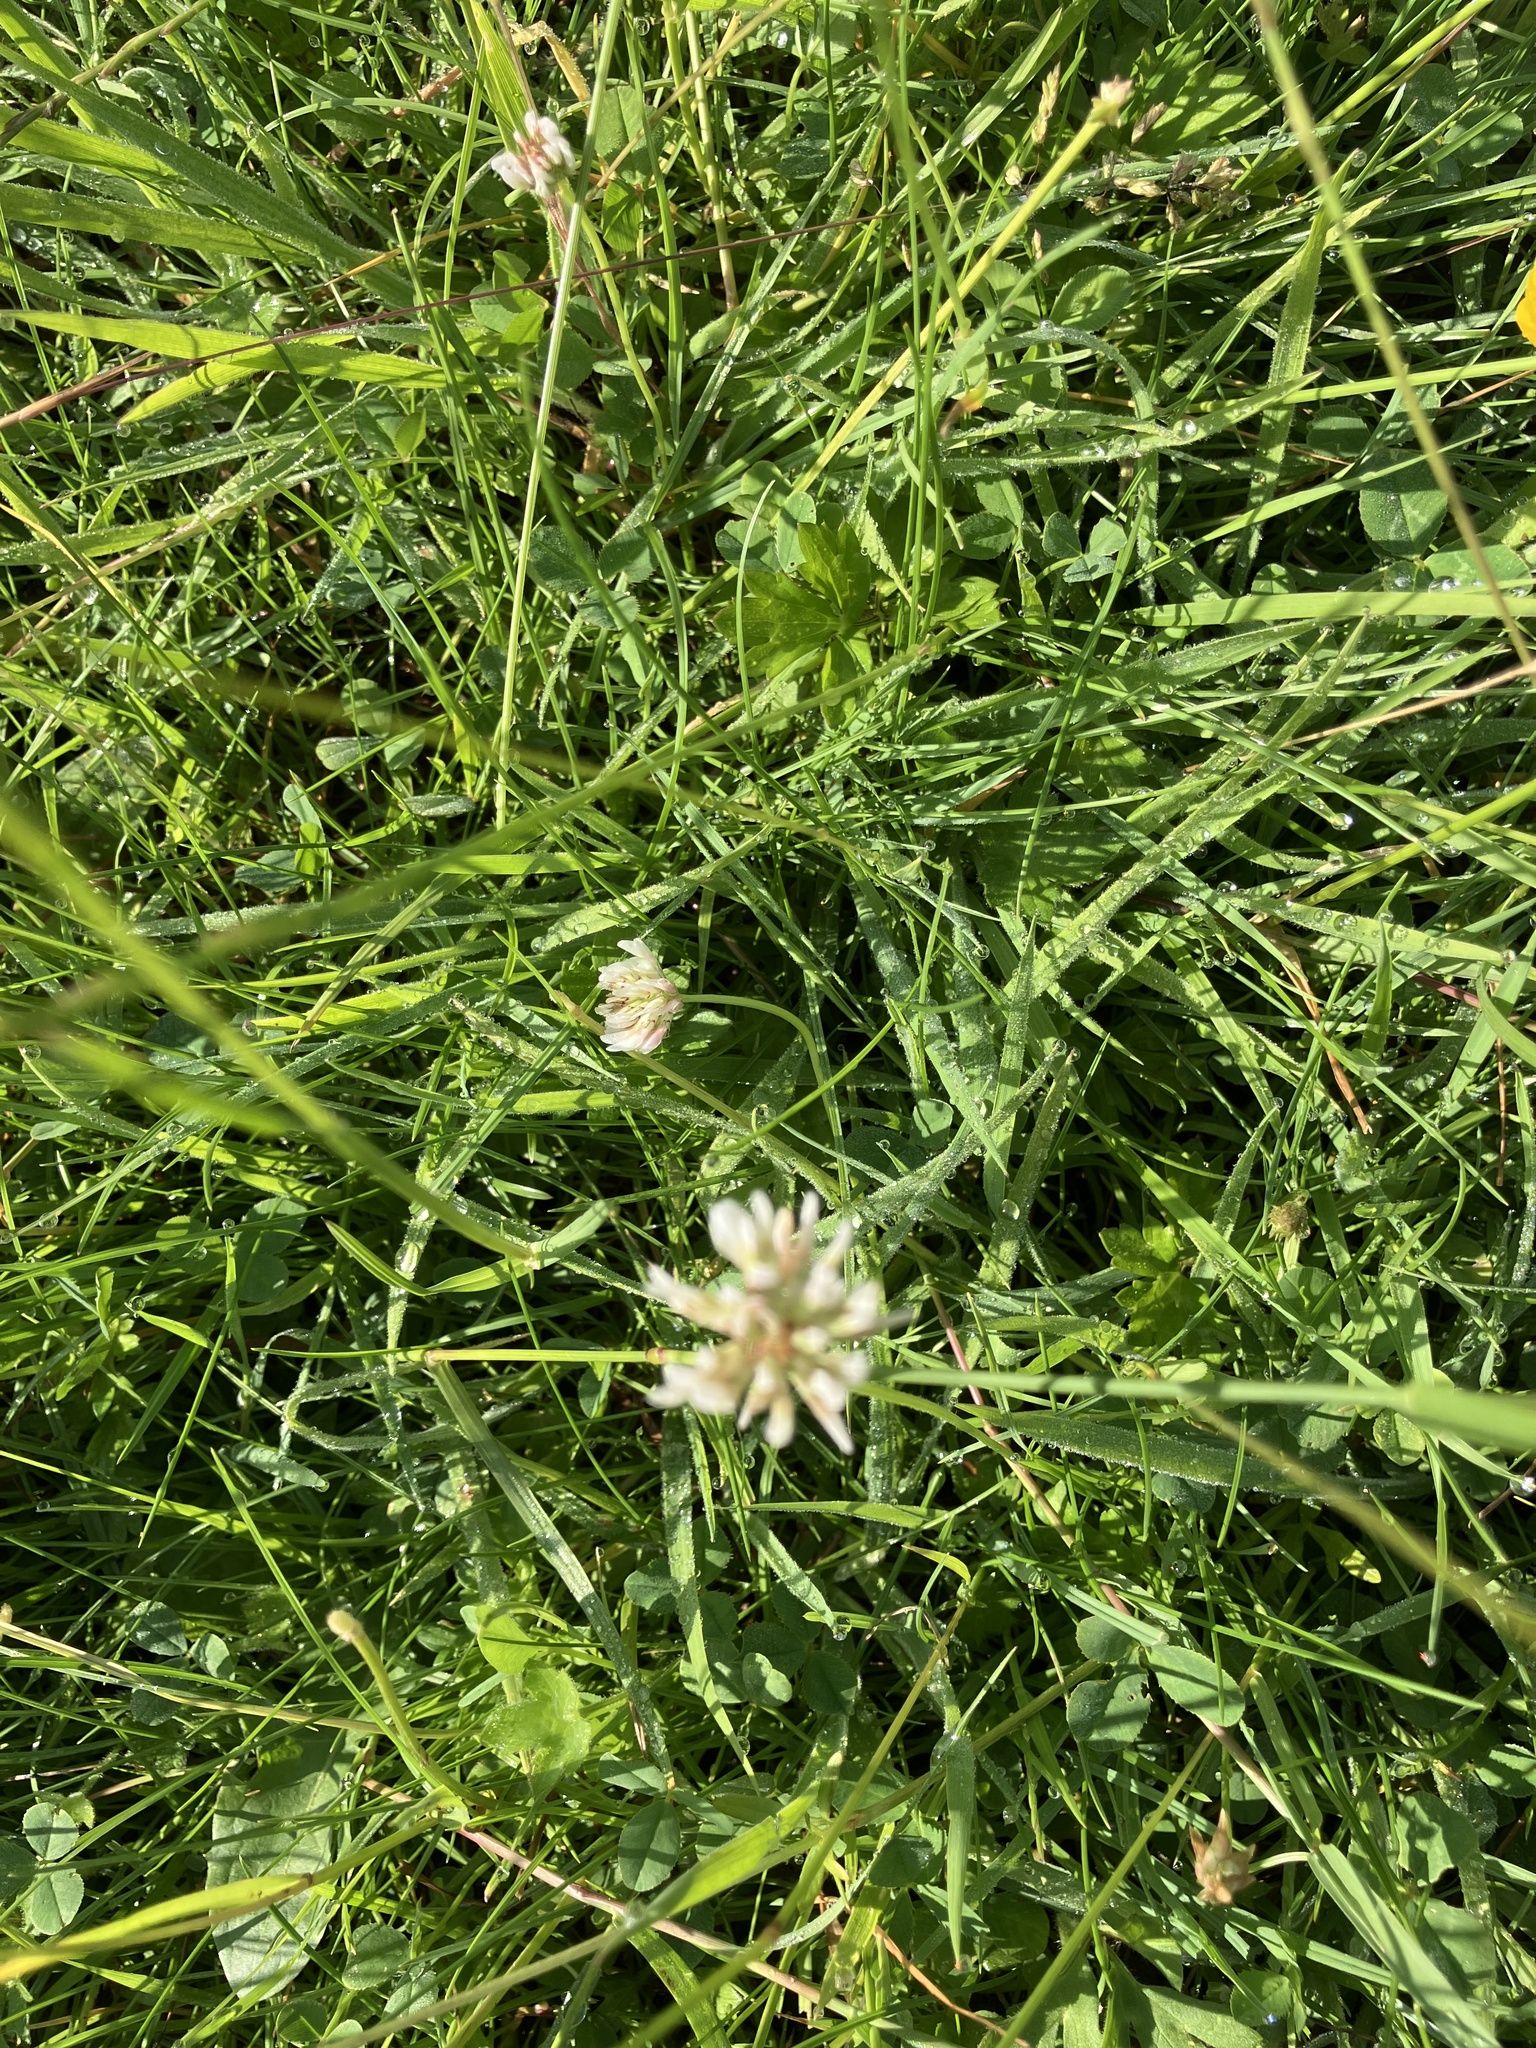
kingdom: Plantae
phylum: Tracheophyta
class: Magnoliopsida
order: Fabales
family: Fabaceae
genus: Trifolium
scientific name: Trifolium repens
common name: White clover
